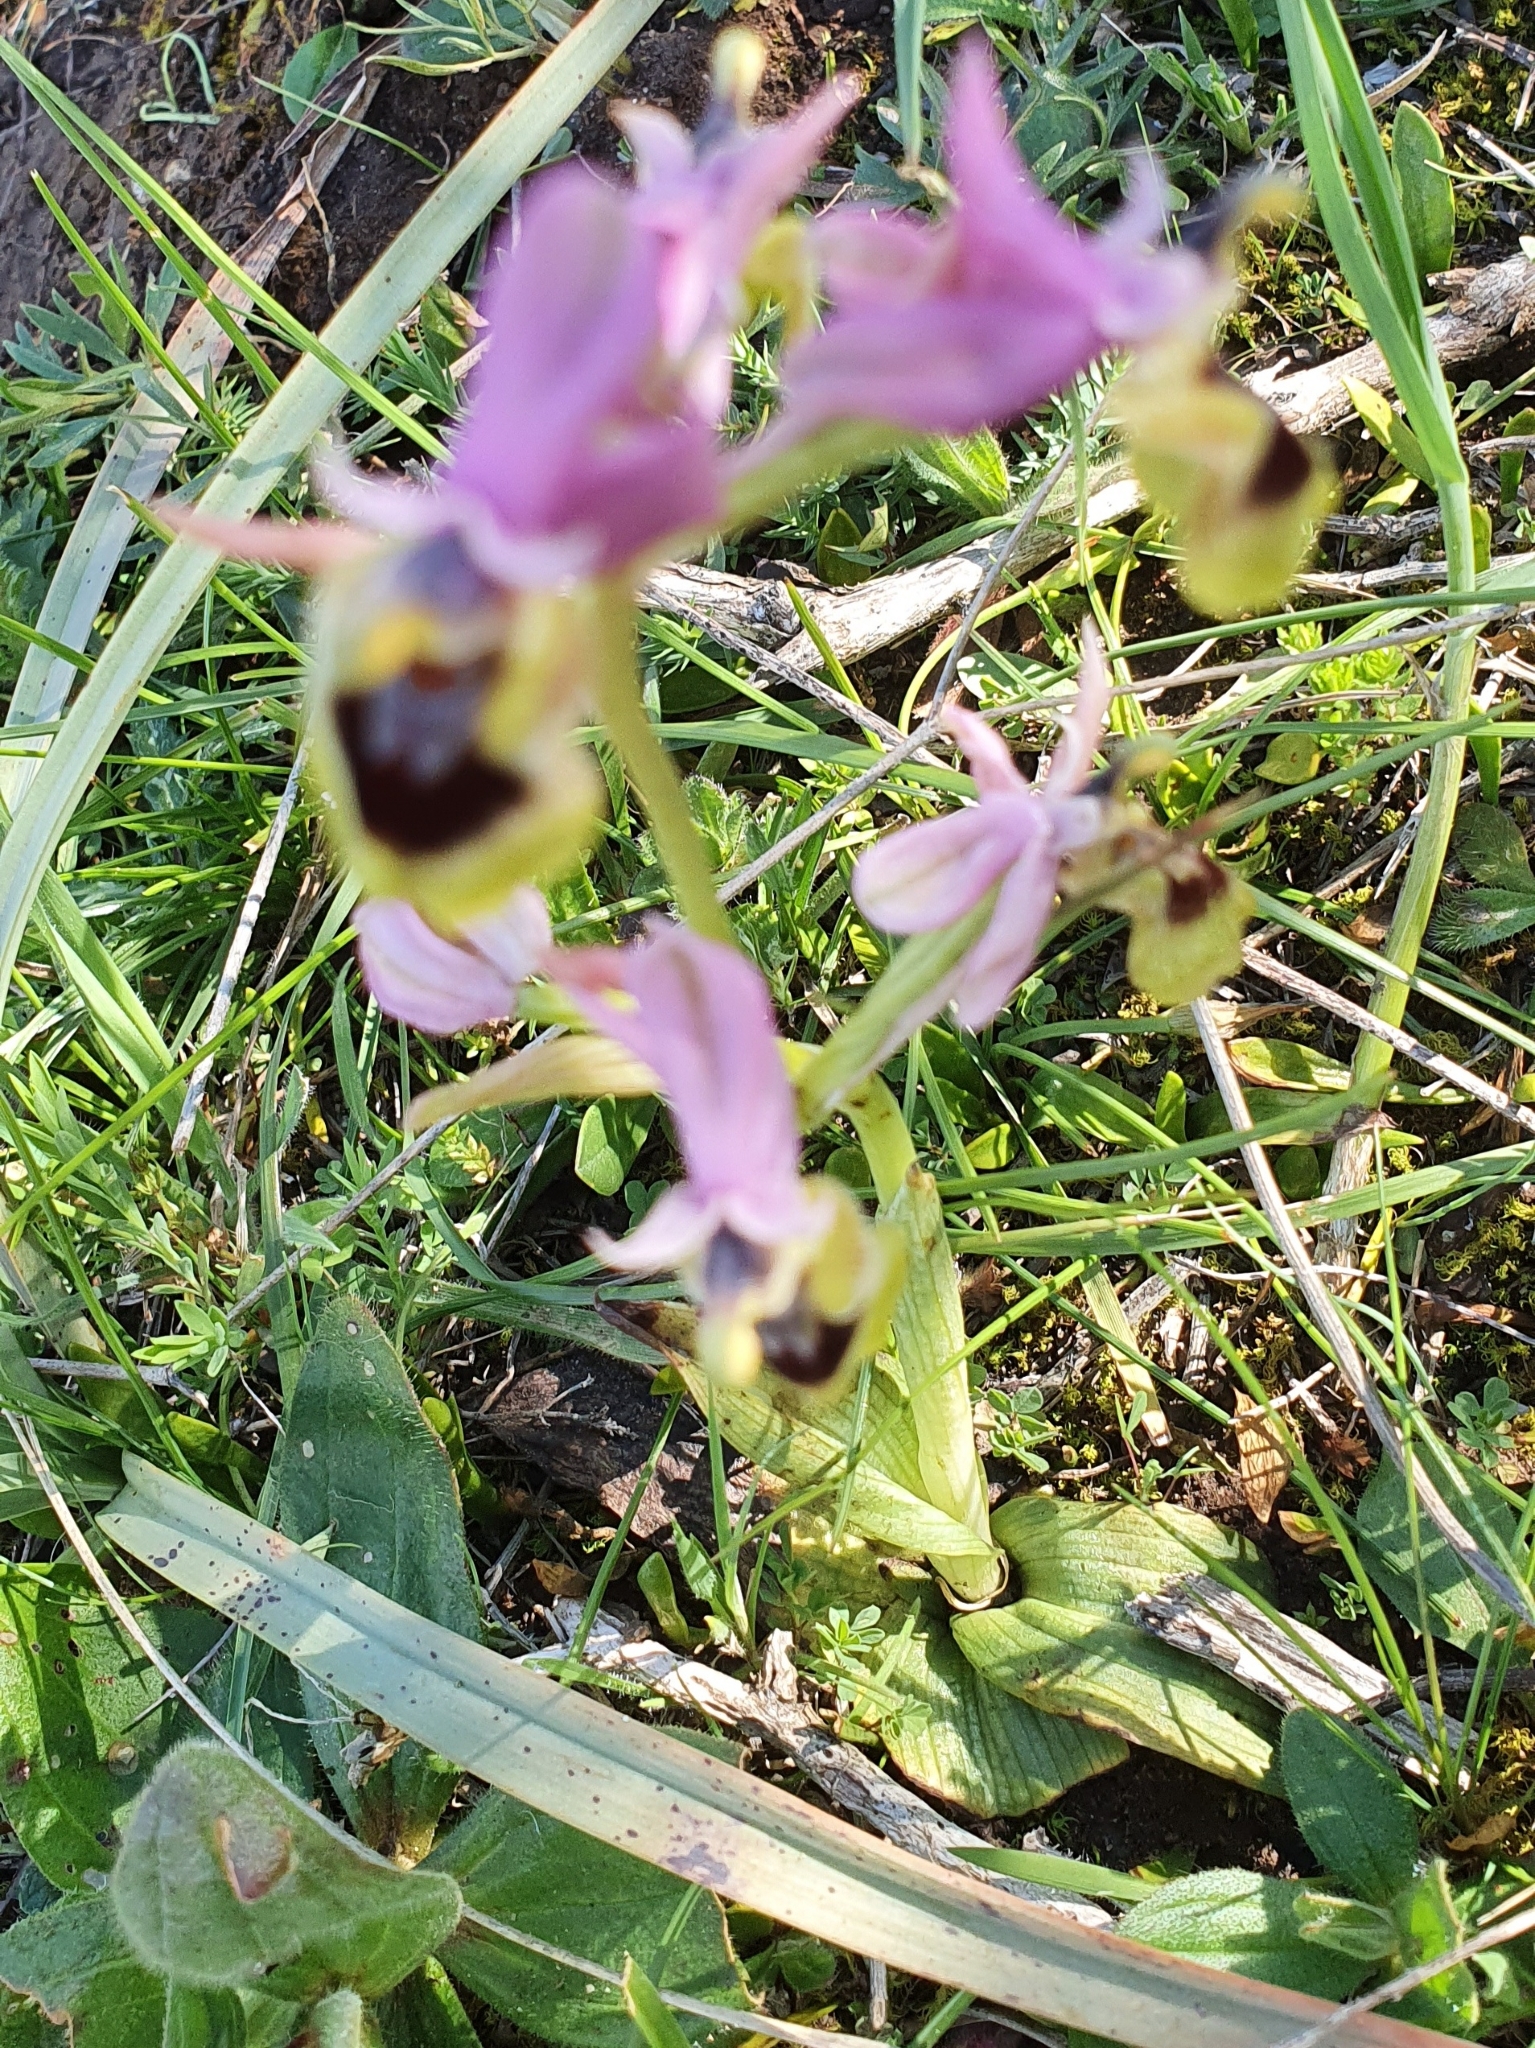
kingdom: Plantae
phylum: Tracheophyta
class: Liliopsida
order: Asparagales
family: Orchidaceae
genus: Ophrys
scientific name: Ophrys tenthredinifera
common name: Sawfly orchid
